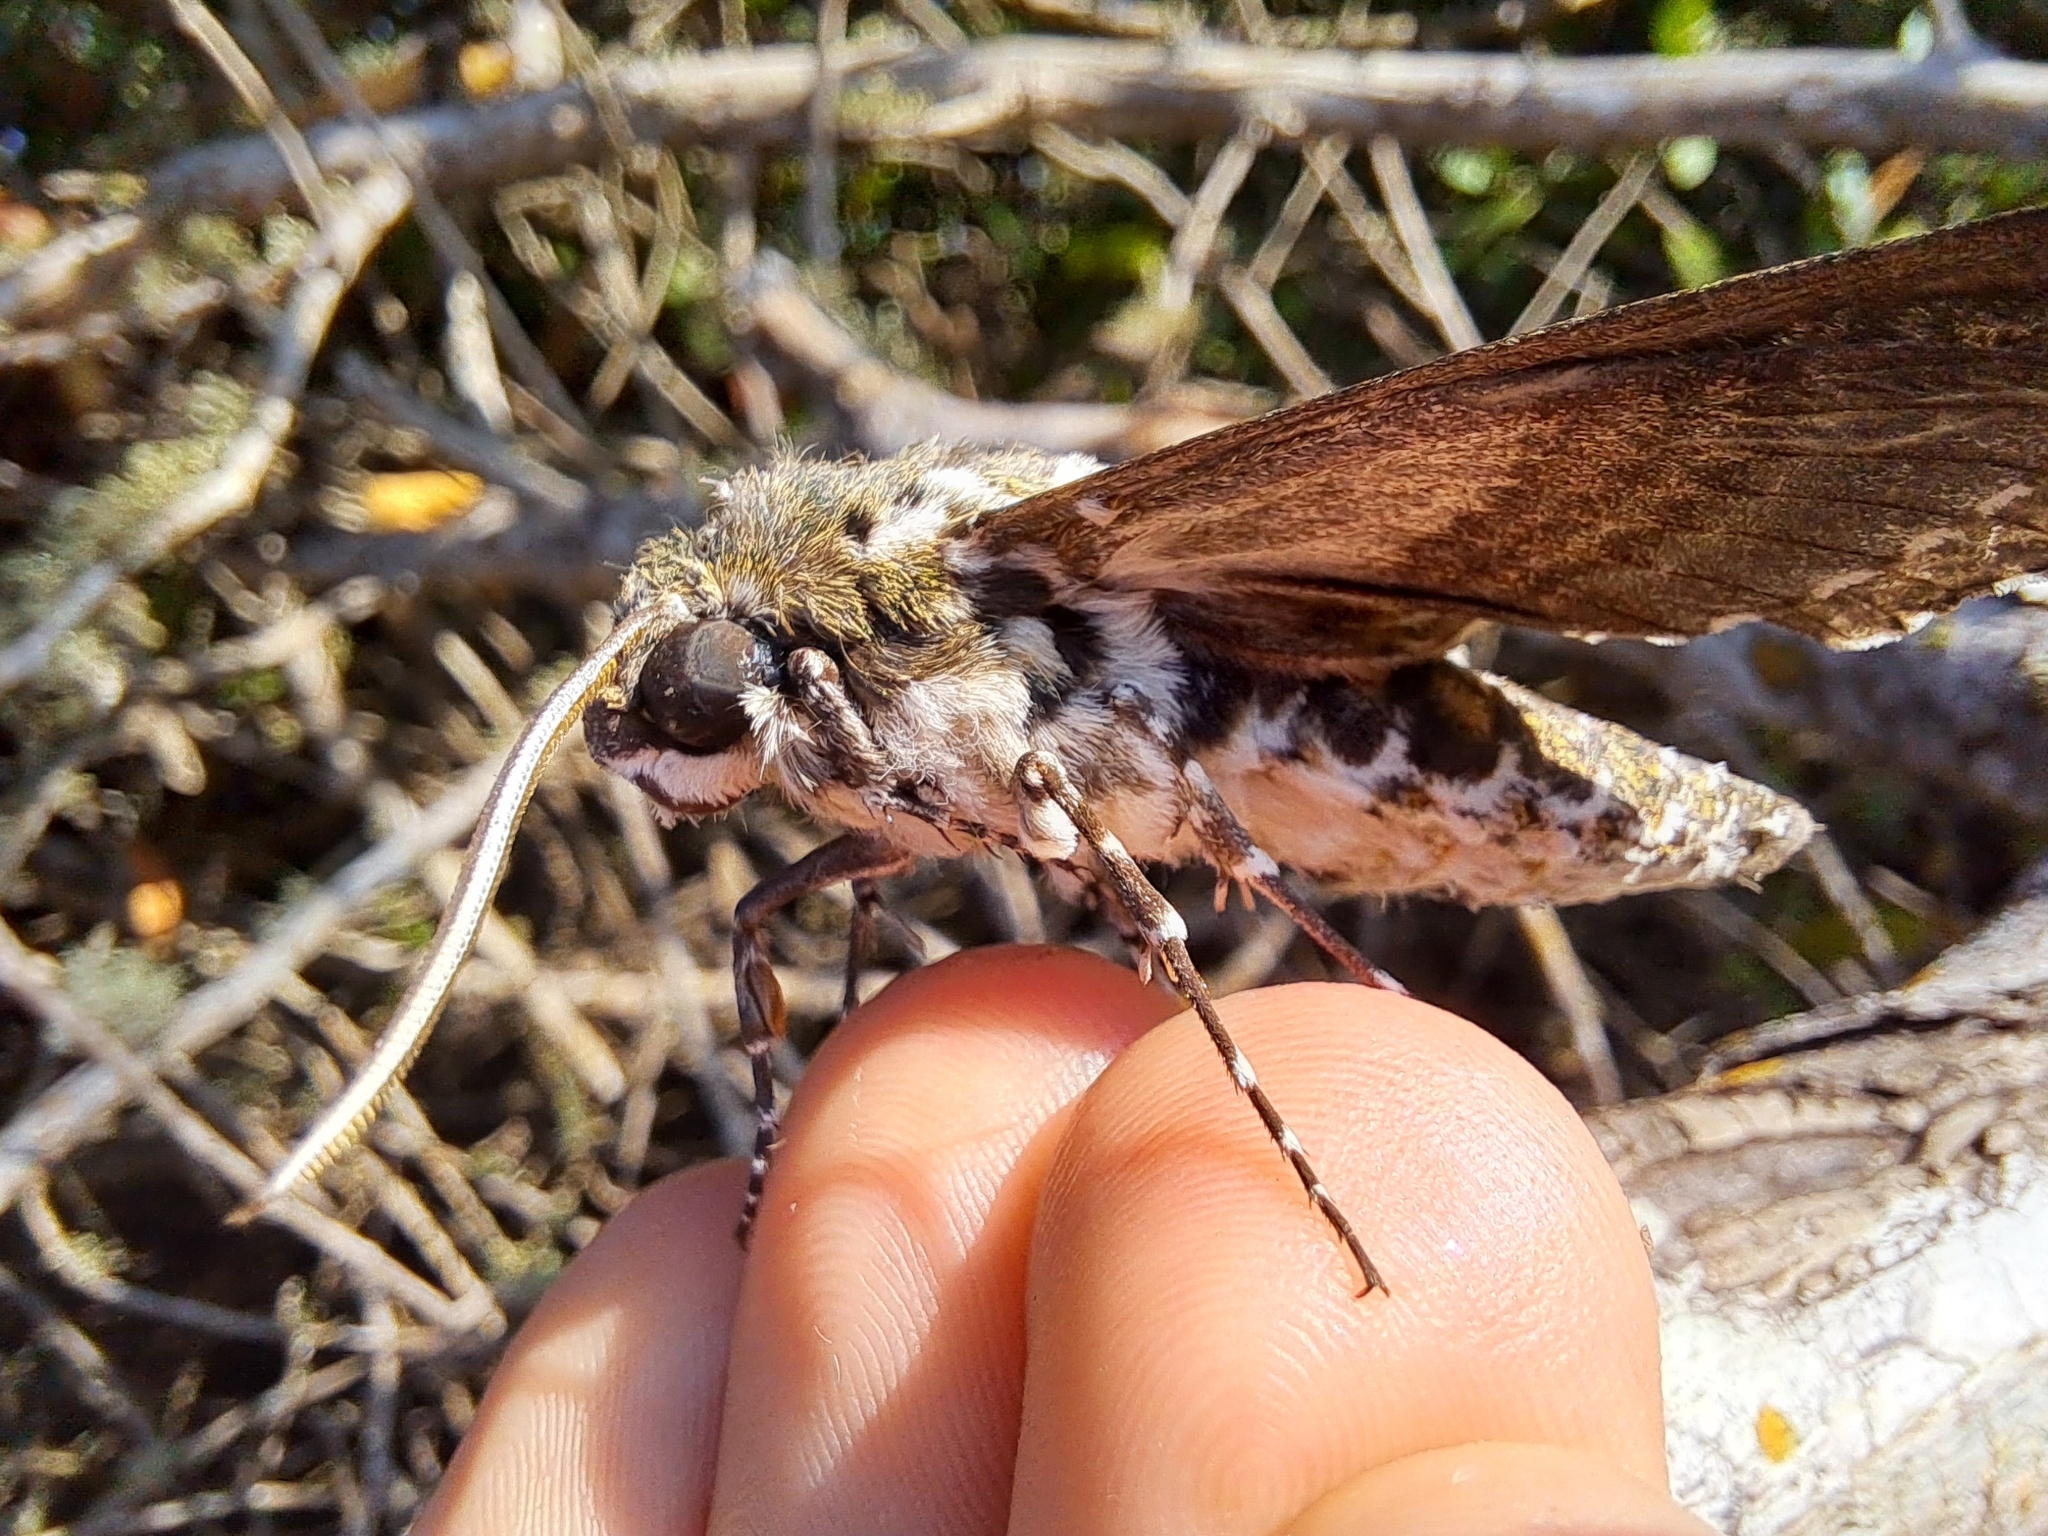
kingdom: Animalia
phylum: Arthropoda
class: Insecta
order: Lepidoptera
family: Sphingidae
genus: Manduca
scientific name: Manduca rustica
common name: Rustic sphinx
